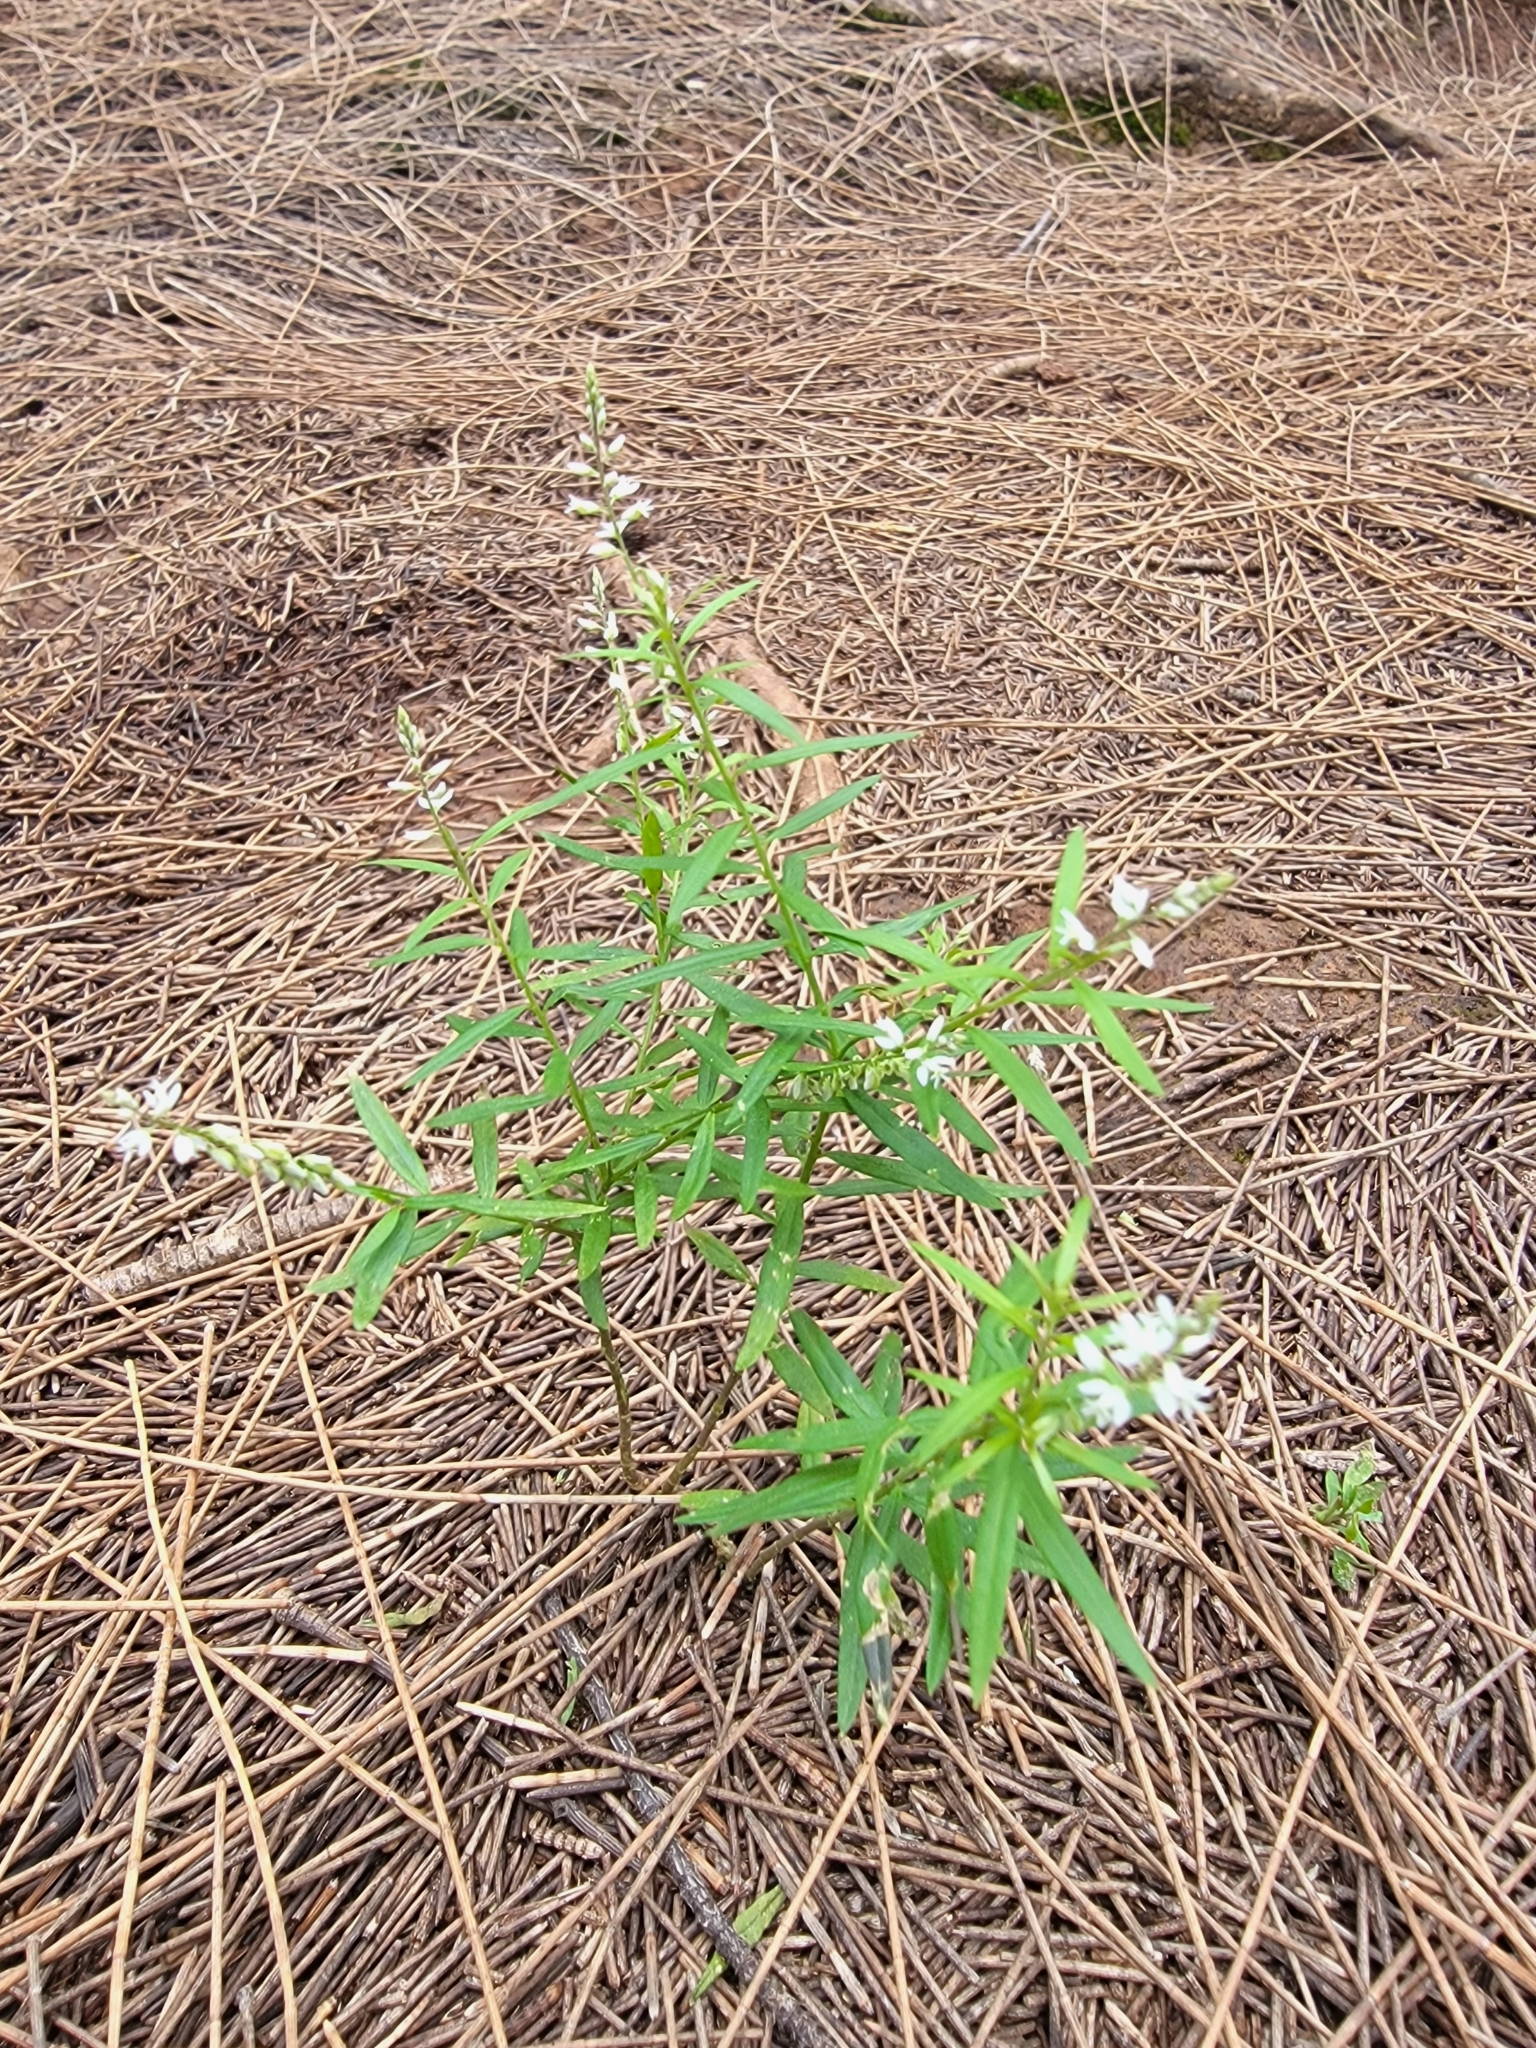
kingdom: Plantae
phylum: Tracheophyta
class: Magnoliopsida
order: Fabales
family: Polygalaceae
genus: Polygala
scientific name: Polygala paniculata
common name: Orosne
